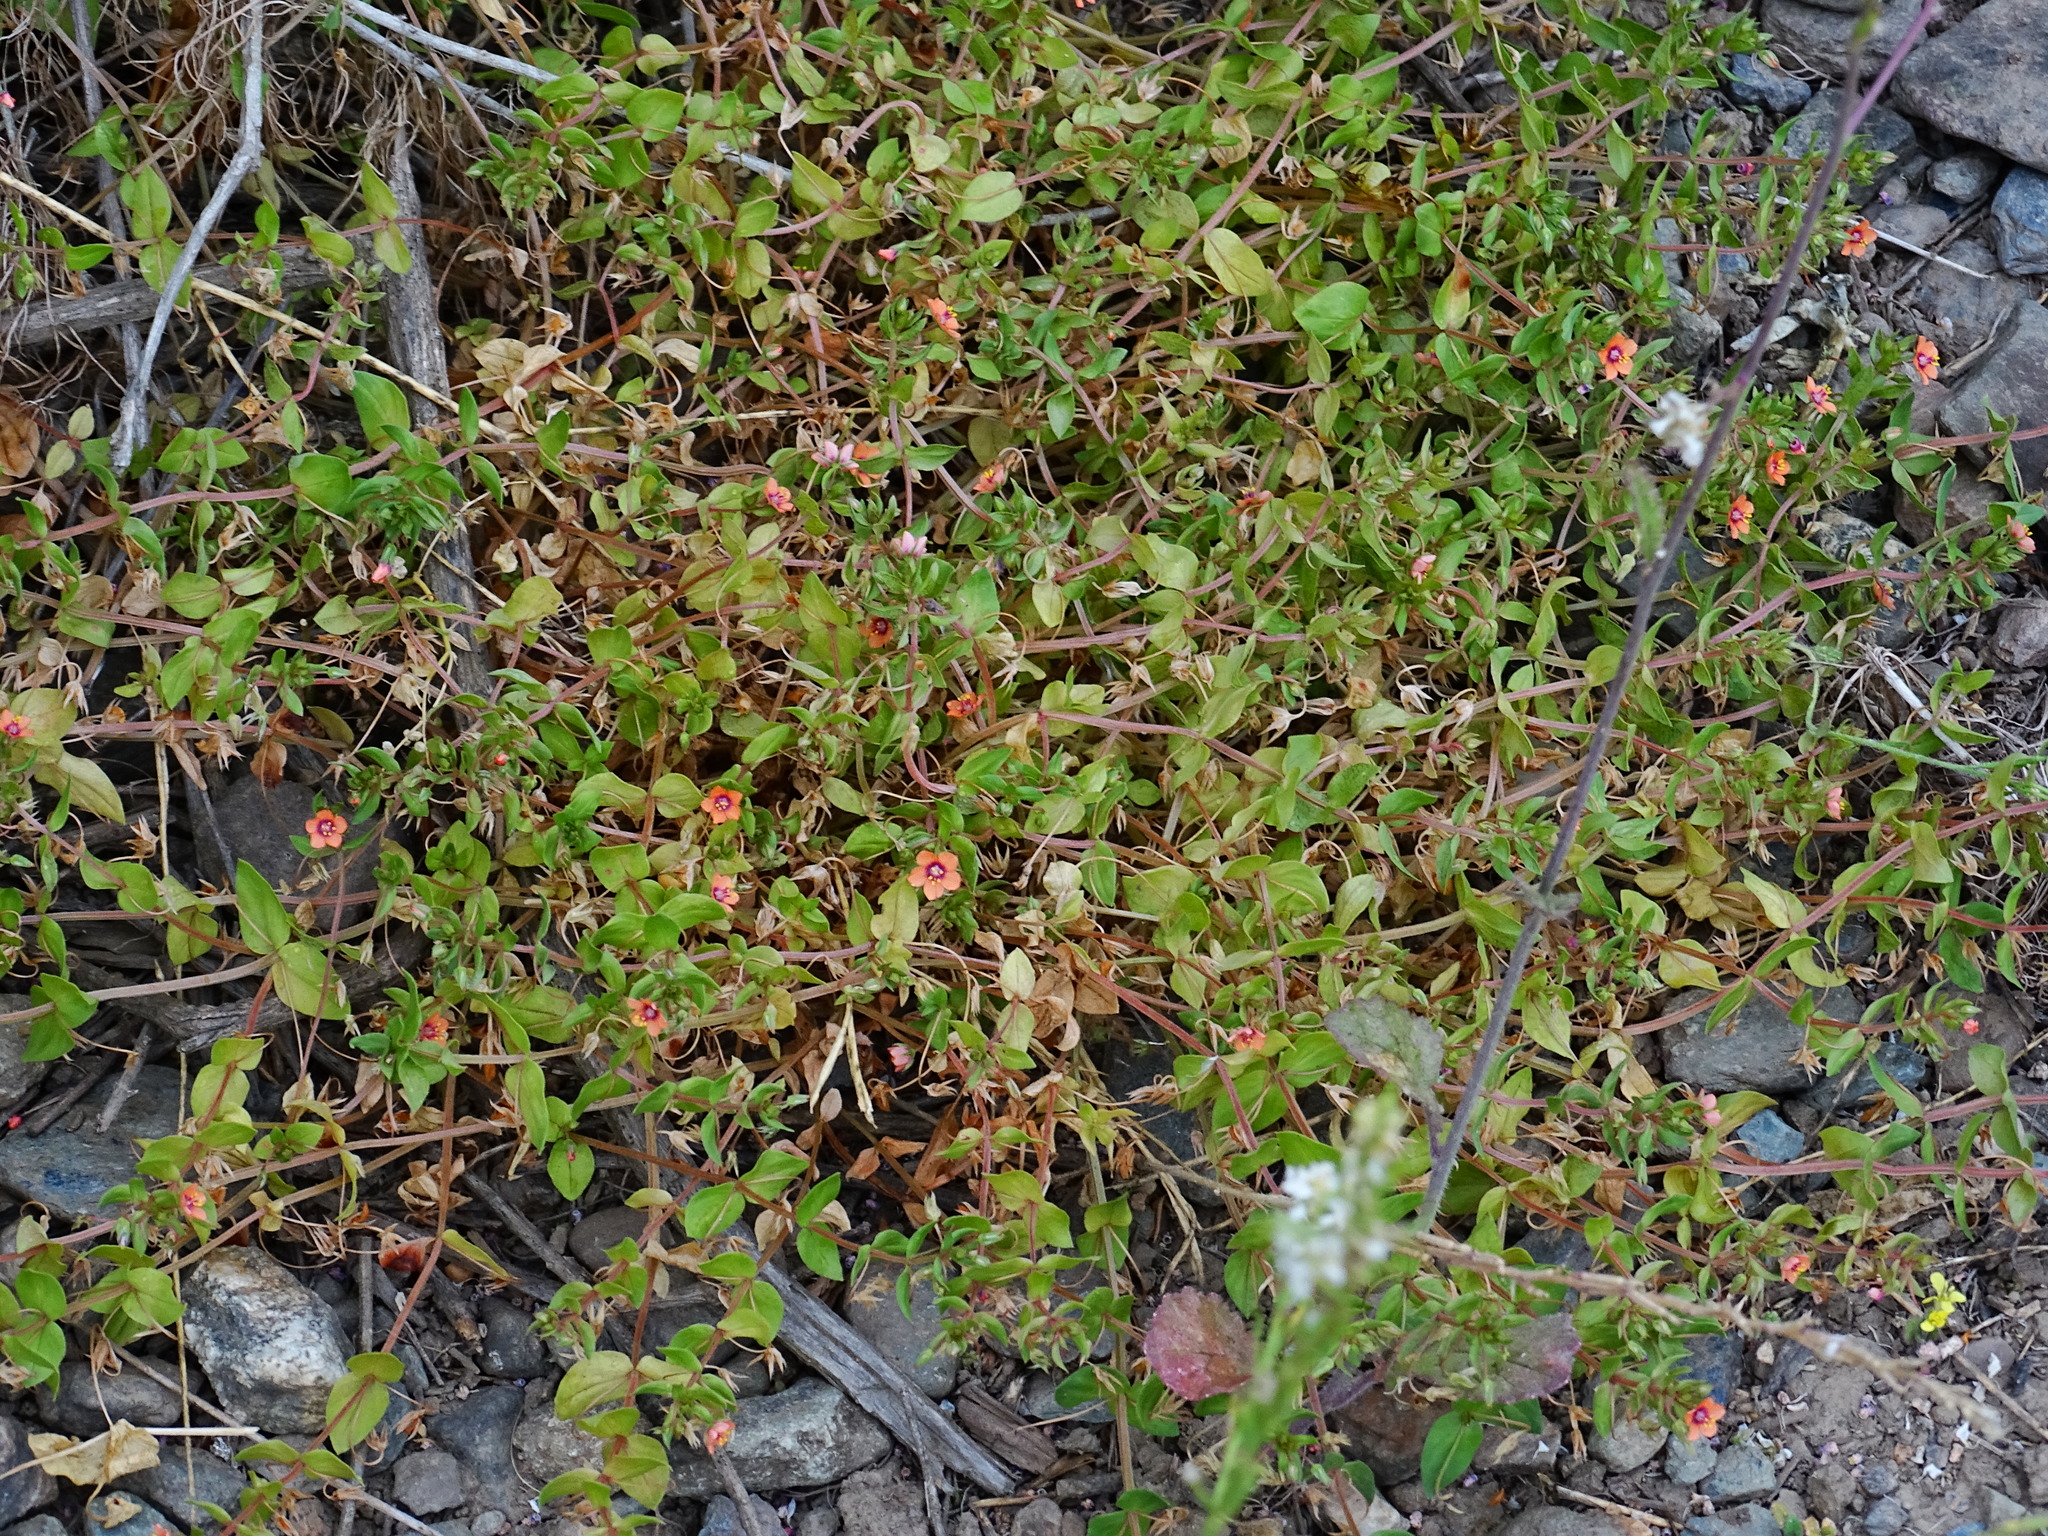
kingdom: Plantae
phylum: Tracheophyta
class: Magnoliopsida
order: Ericales
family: Primulaceae
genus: Lysimachia
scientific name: Lysimachia arvensis
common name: Scarlet pimpernel
